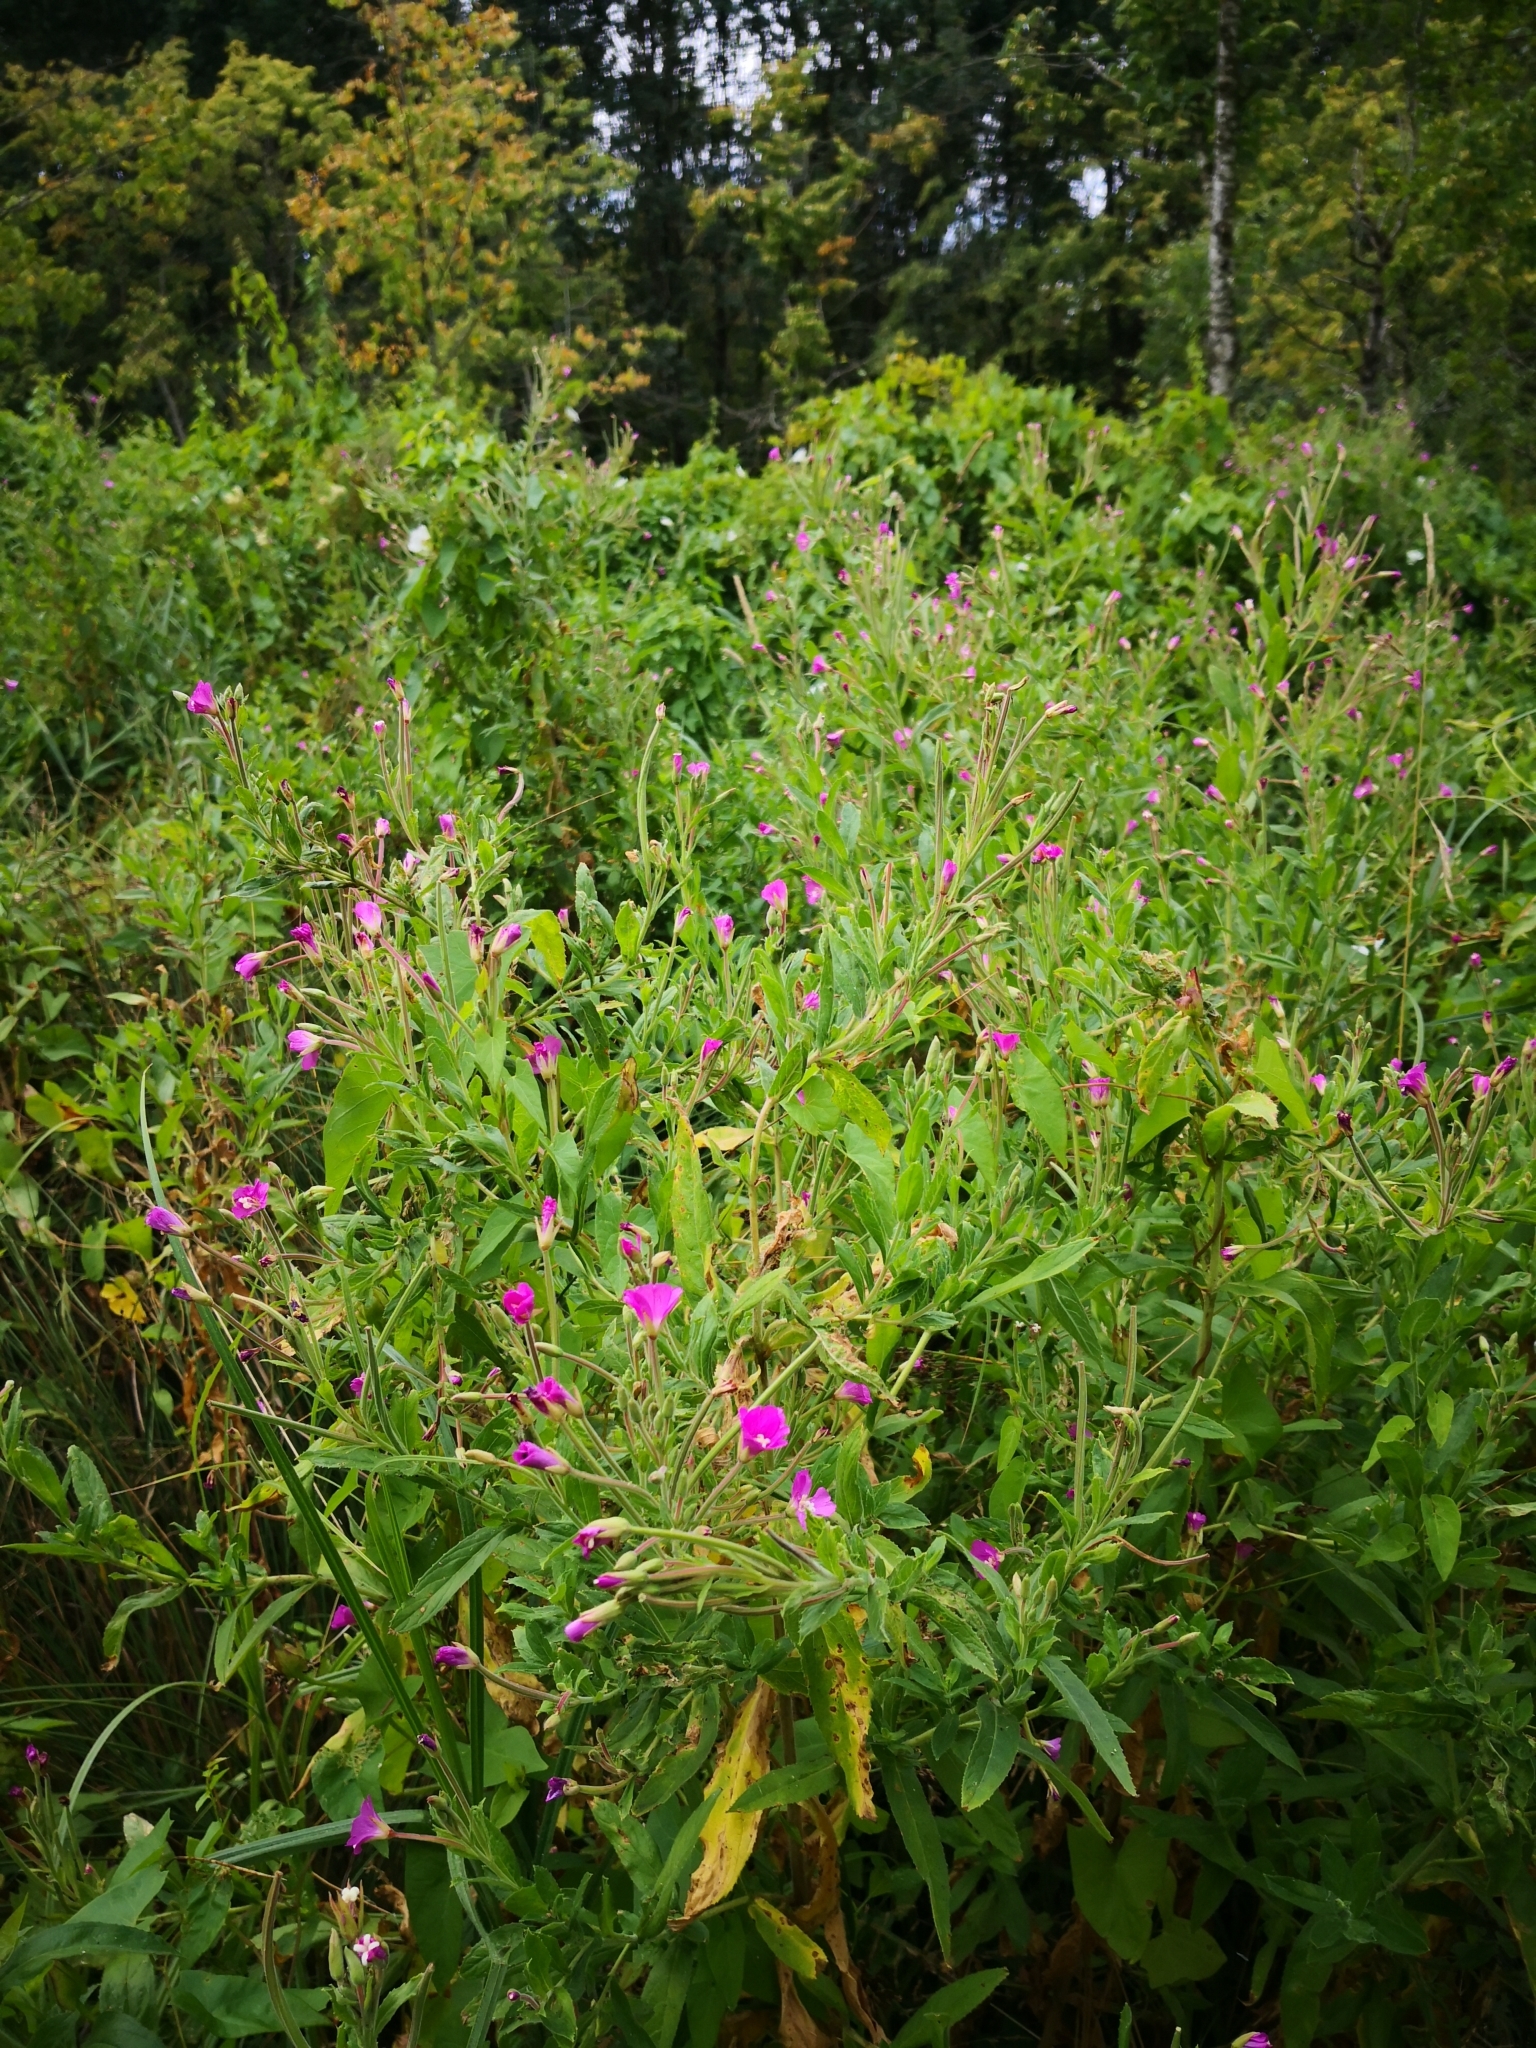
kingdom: Plantae
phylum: Tracheophyta
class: Magnoliopsida
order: Myrtales
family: Onagraceae
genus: Epilobium
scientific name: Epilobium hirsutum
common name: Great willowherb
